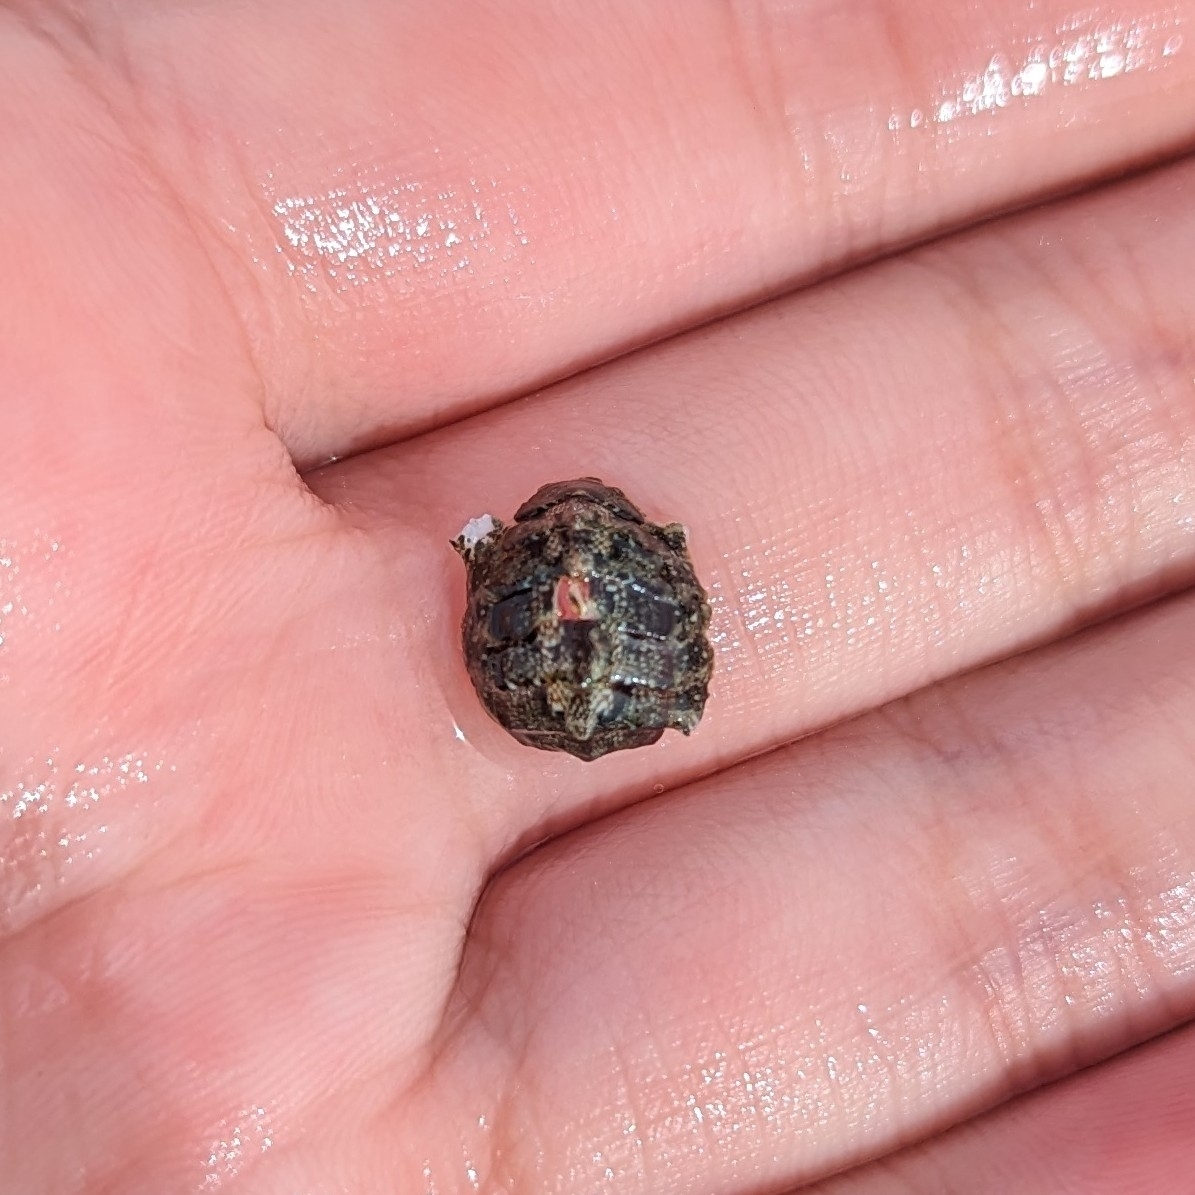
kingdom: Animalia
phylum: Mollusca
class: Polyplacophora
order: Chitonida
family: Tonicellidae
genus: Cyanoplax
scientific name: Cyanoplax dentiens
